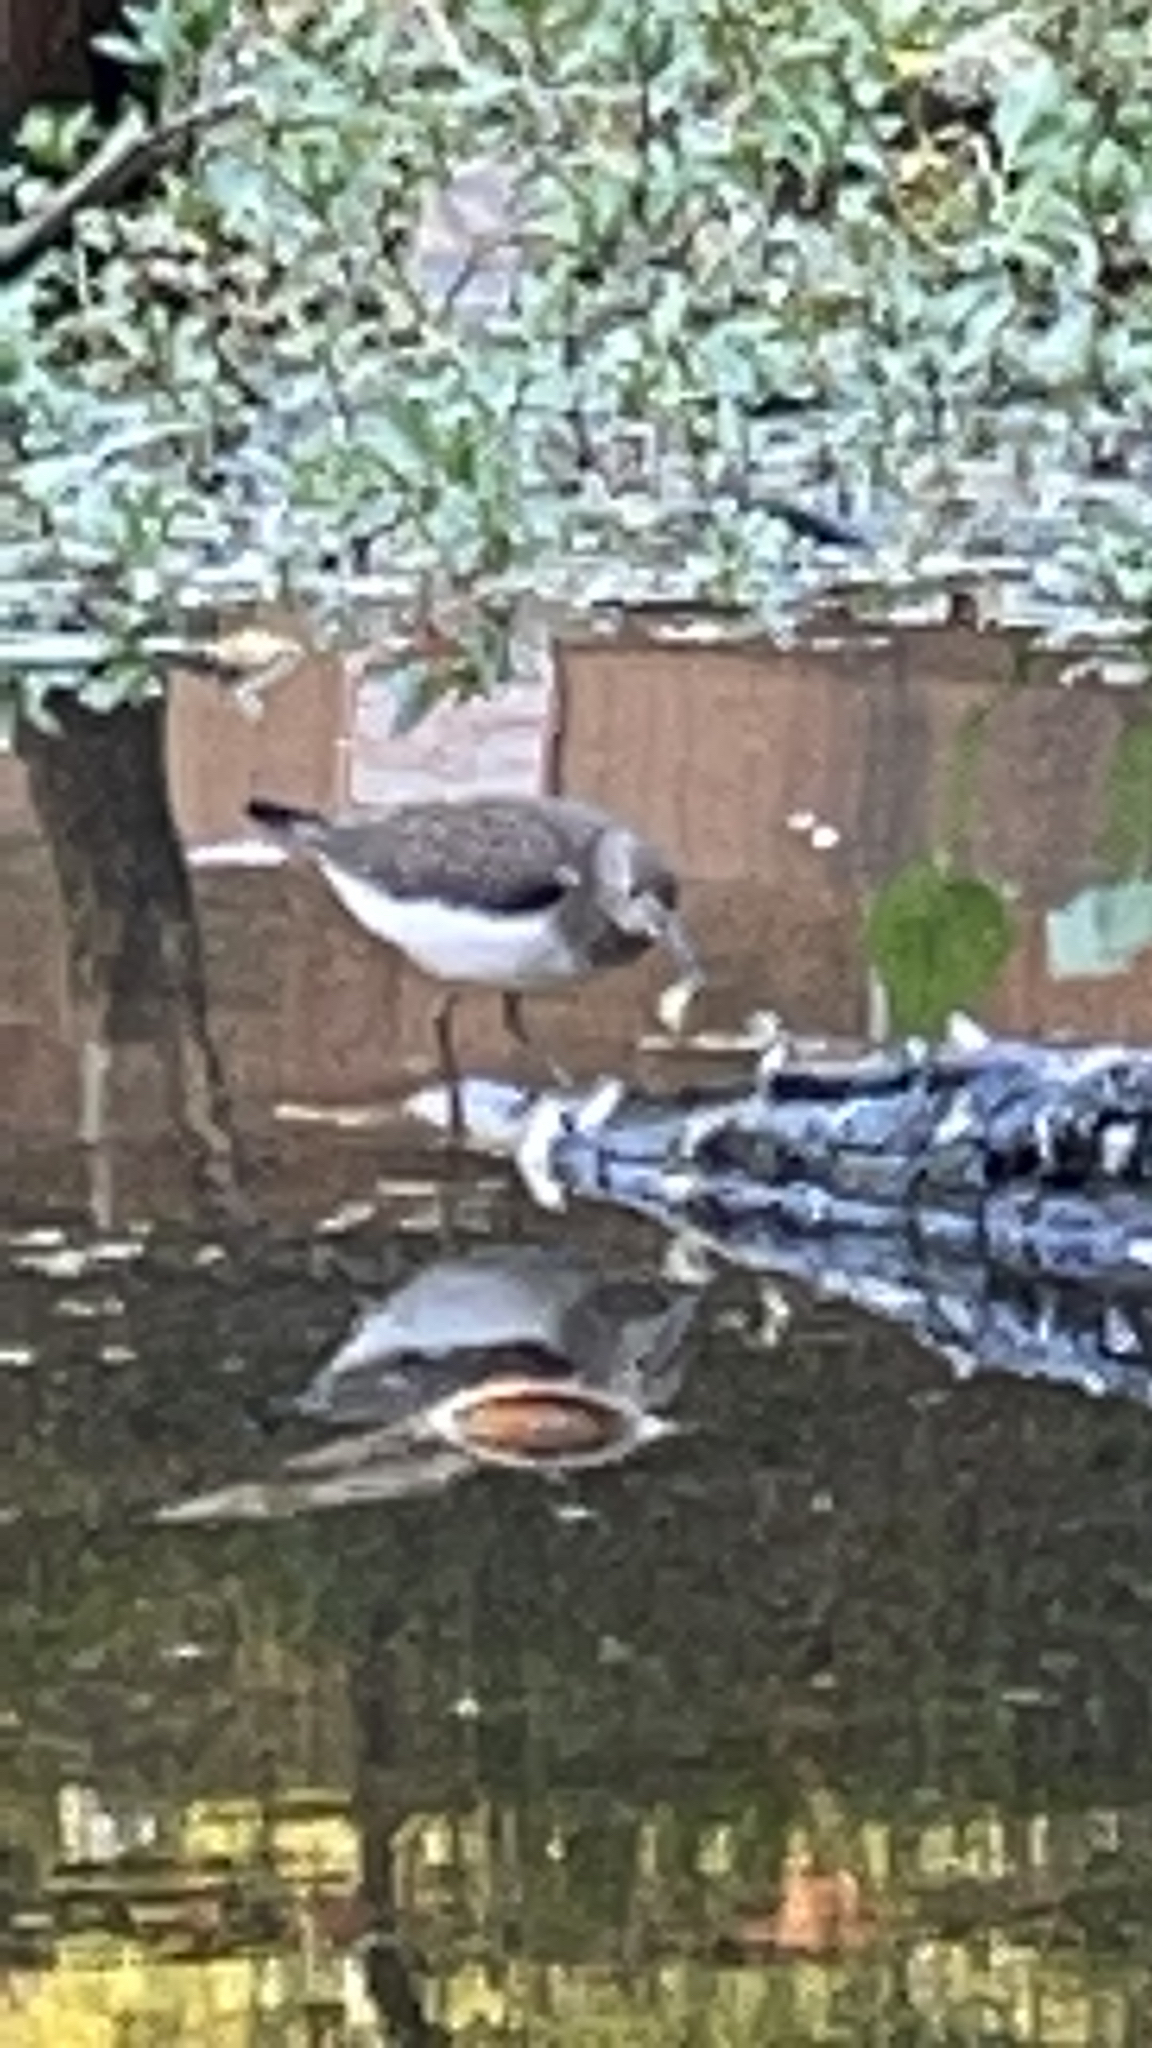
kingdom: Animalia
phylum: Chordata
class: Aves
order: Charadriiformes
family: Scolopacidae
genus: Tringa
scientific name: Tringa solitaria
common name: Solitary sandpiper
